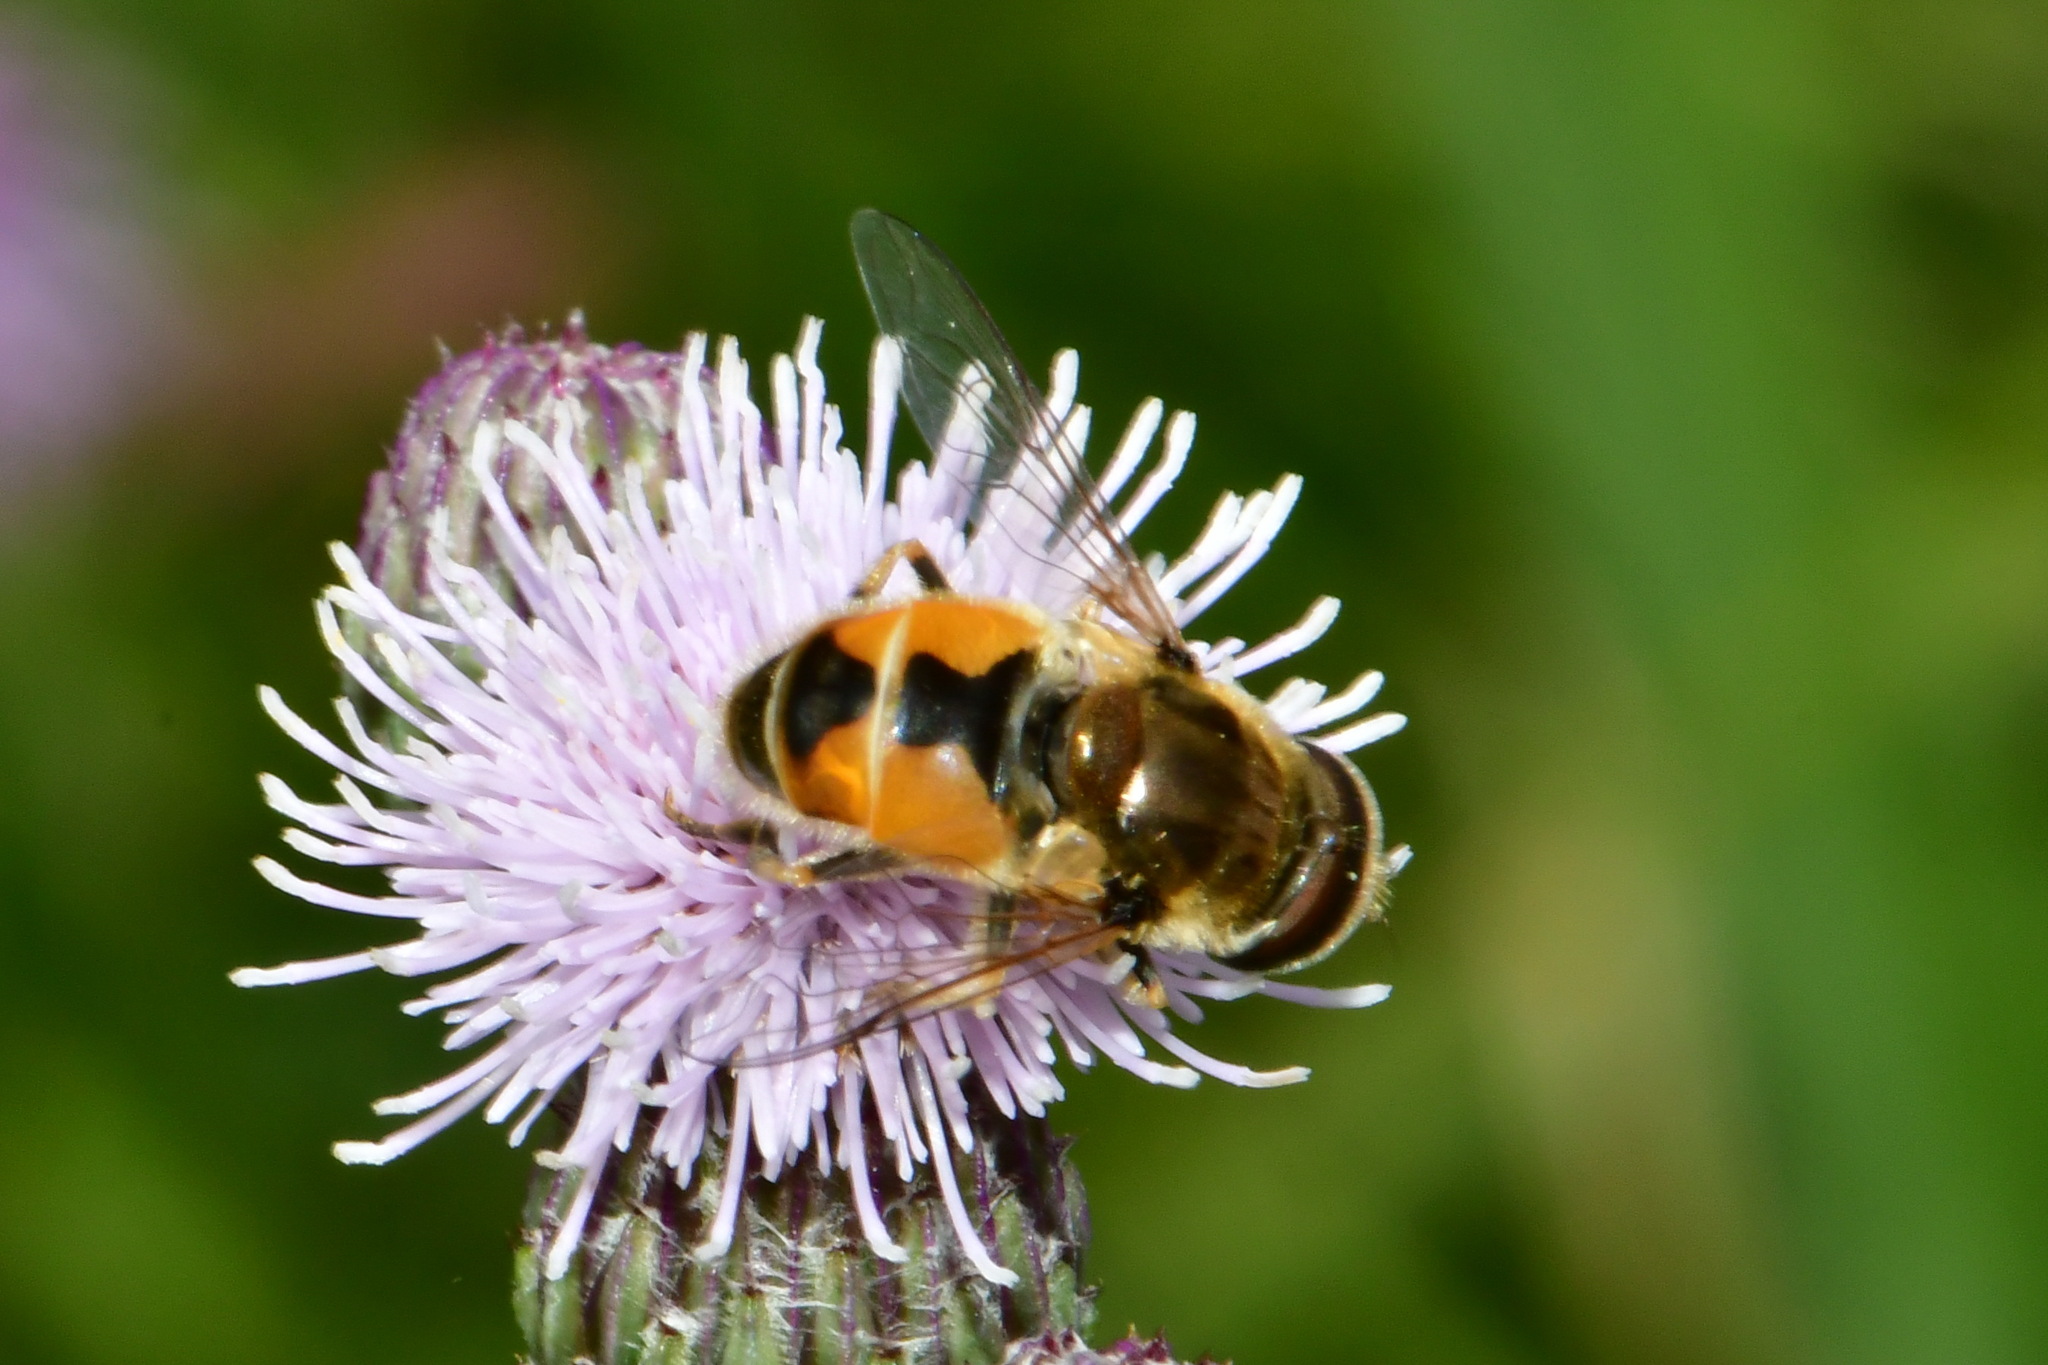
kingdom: Animalia
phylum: Arthropoda
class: Insecta
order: Diptera
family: Syrphidae
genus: Eristalis
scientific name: Eristalis arbustorum
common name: Hover fly
